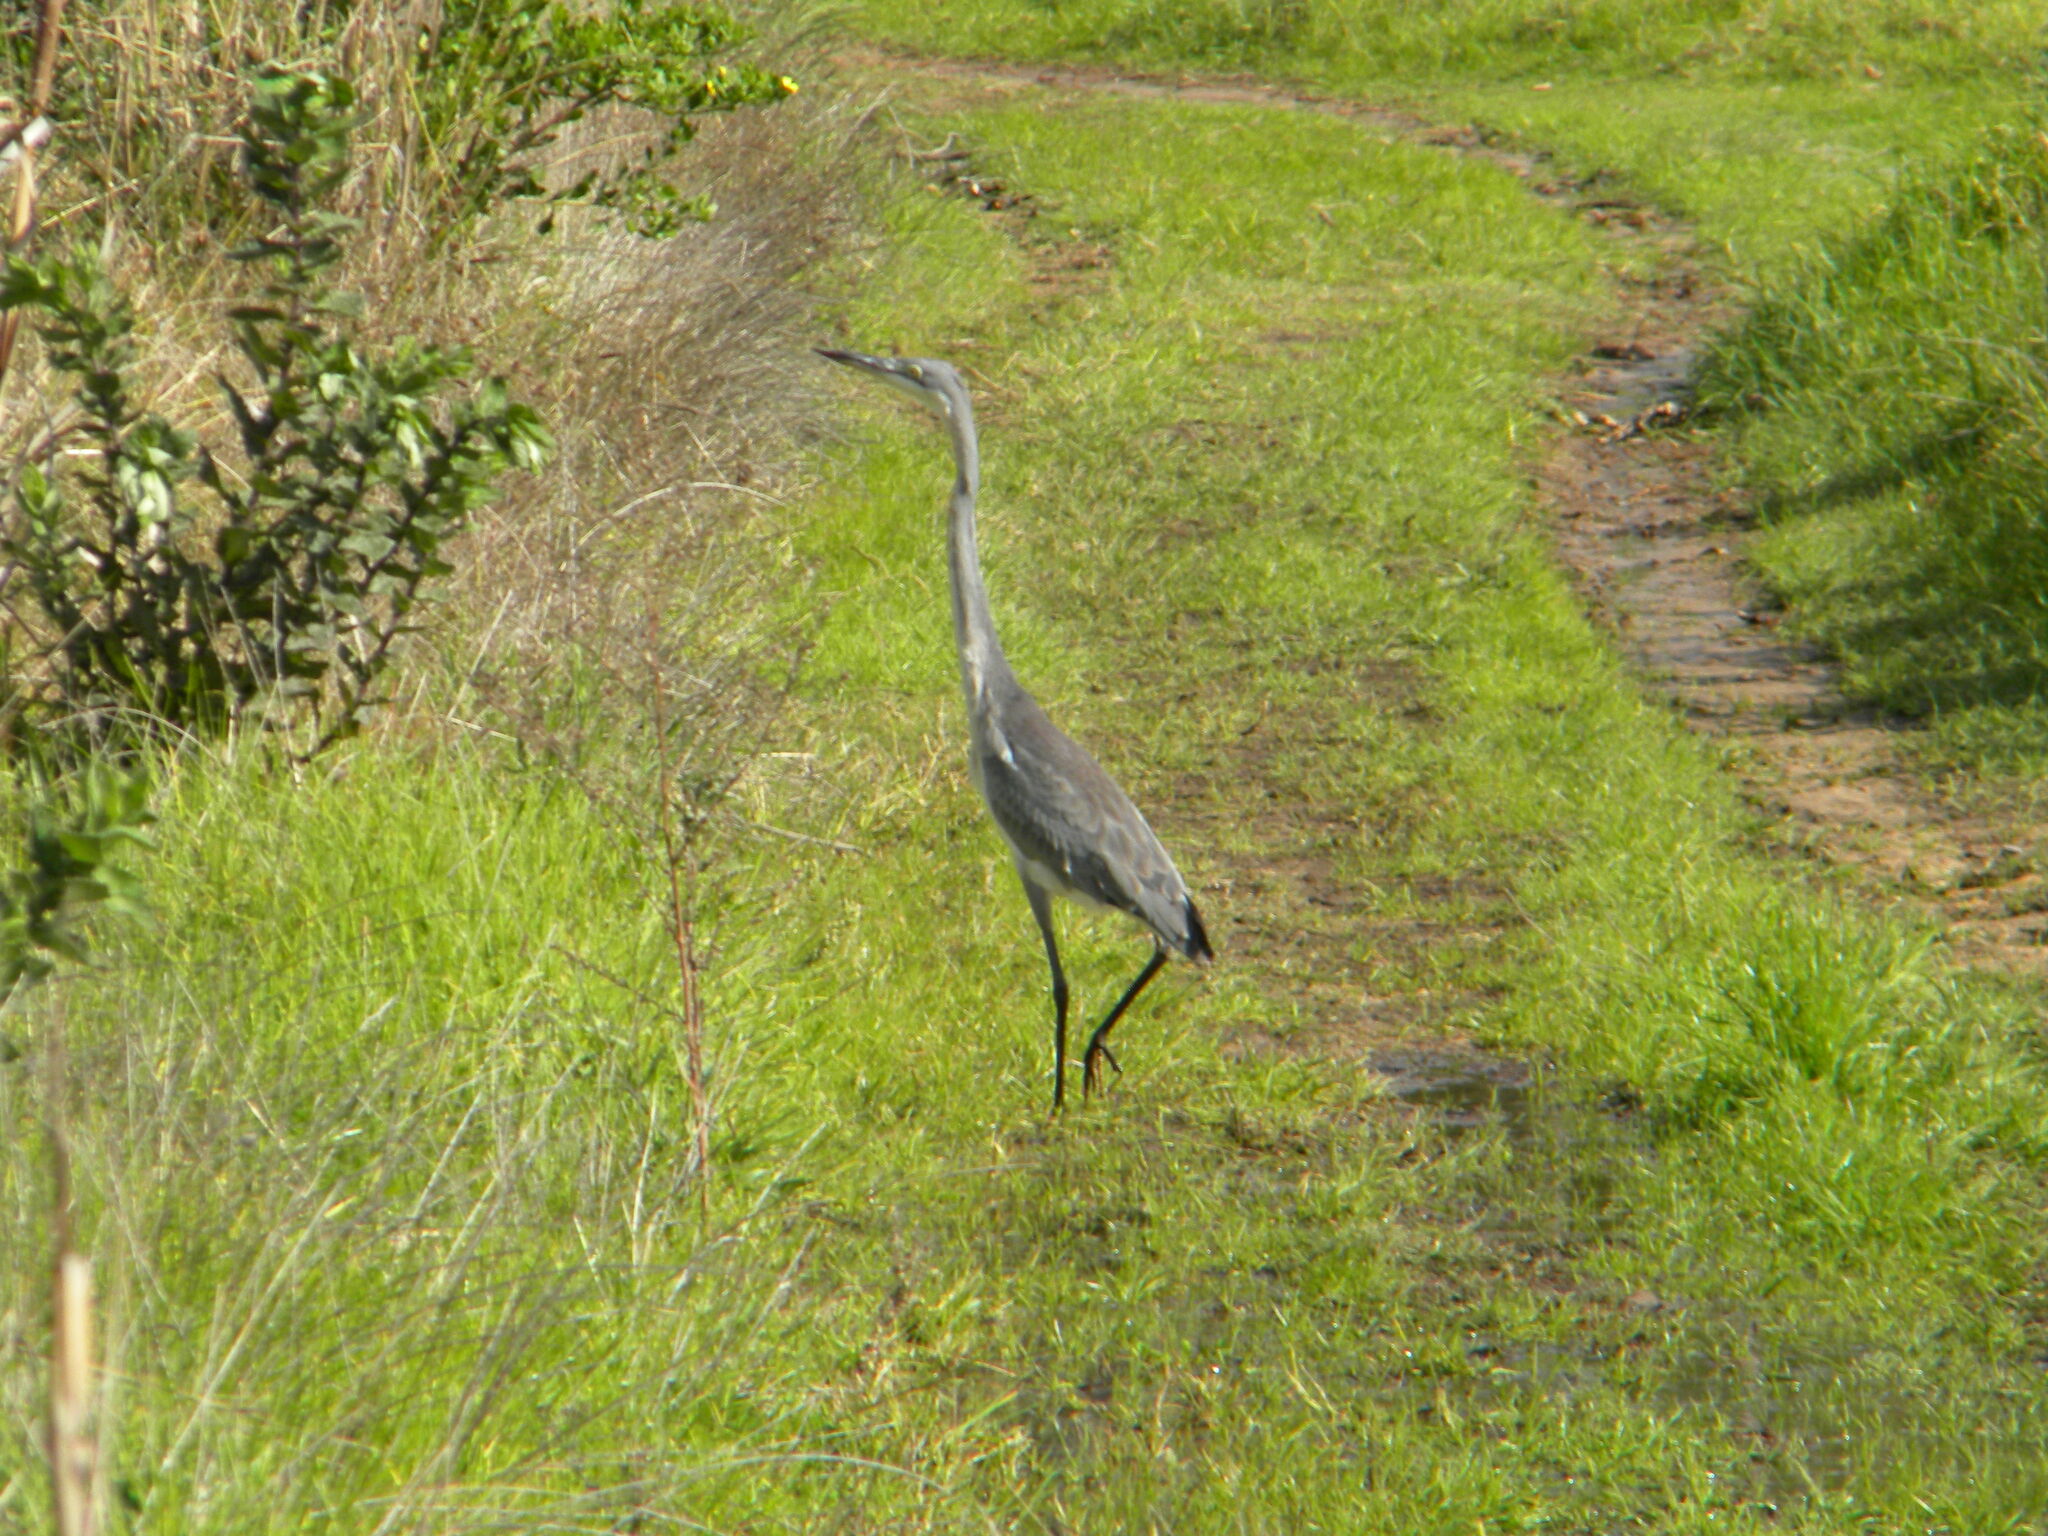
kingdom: Animalia
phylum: Chordata
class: Aves
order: Pelecaniformes
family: Ardeidae
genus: Ardea
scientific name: Ardea melanocephala
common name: Black-headed heron
